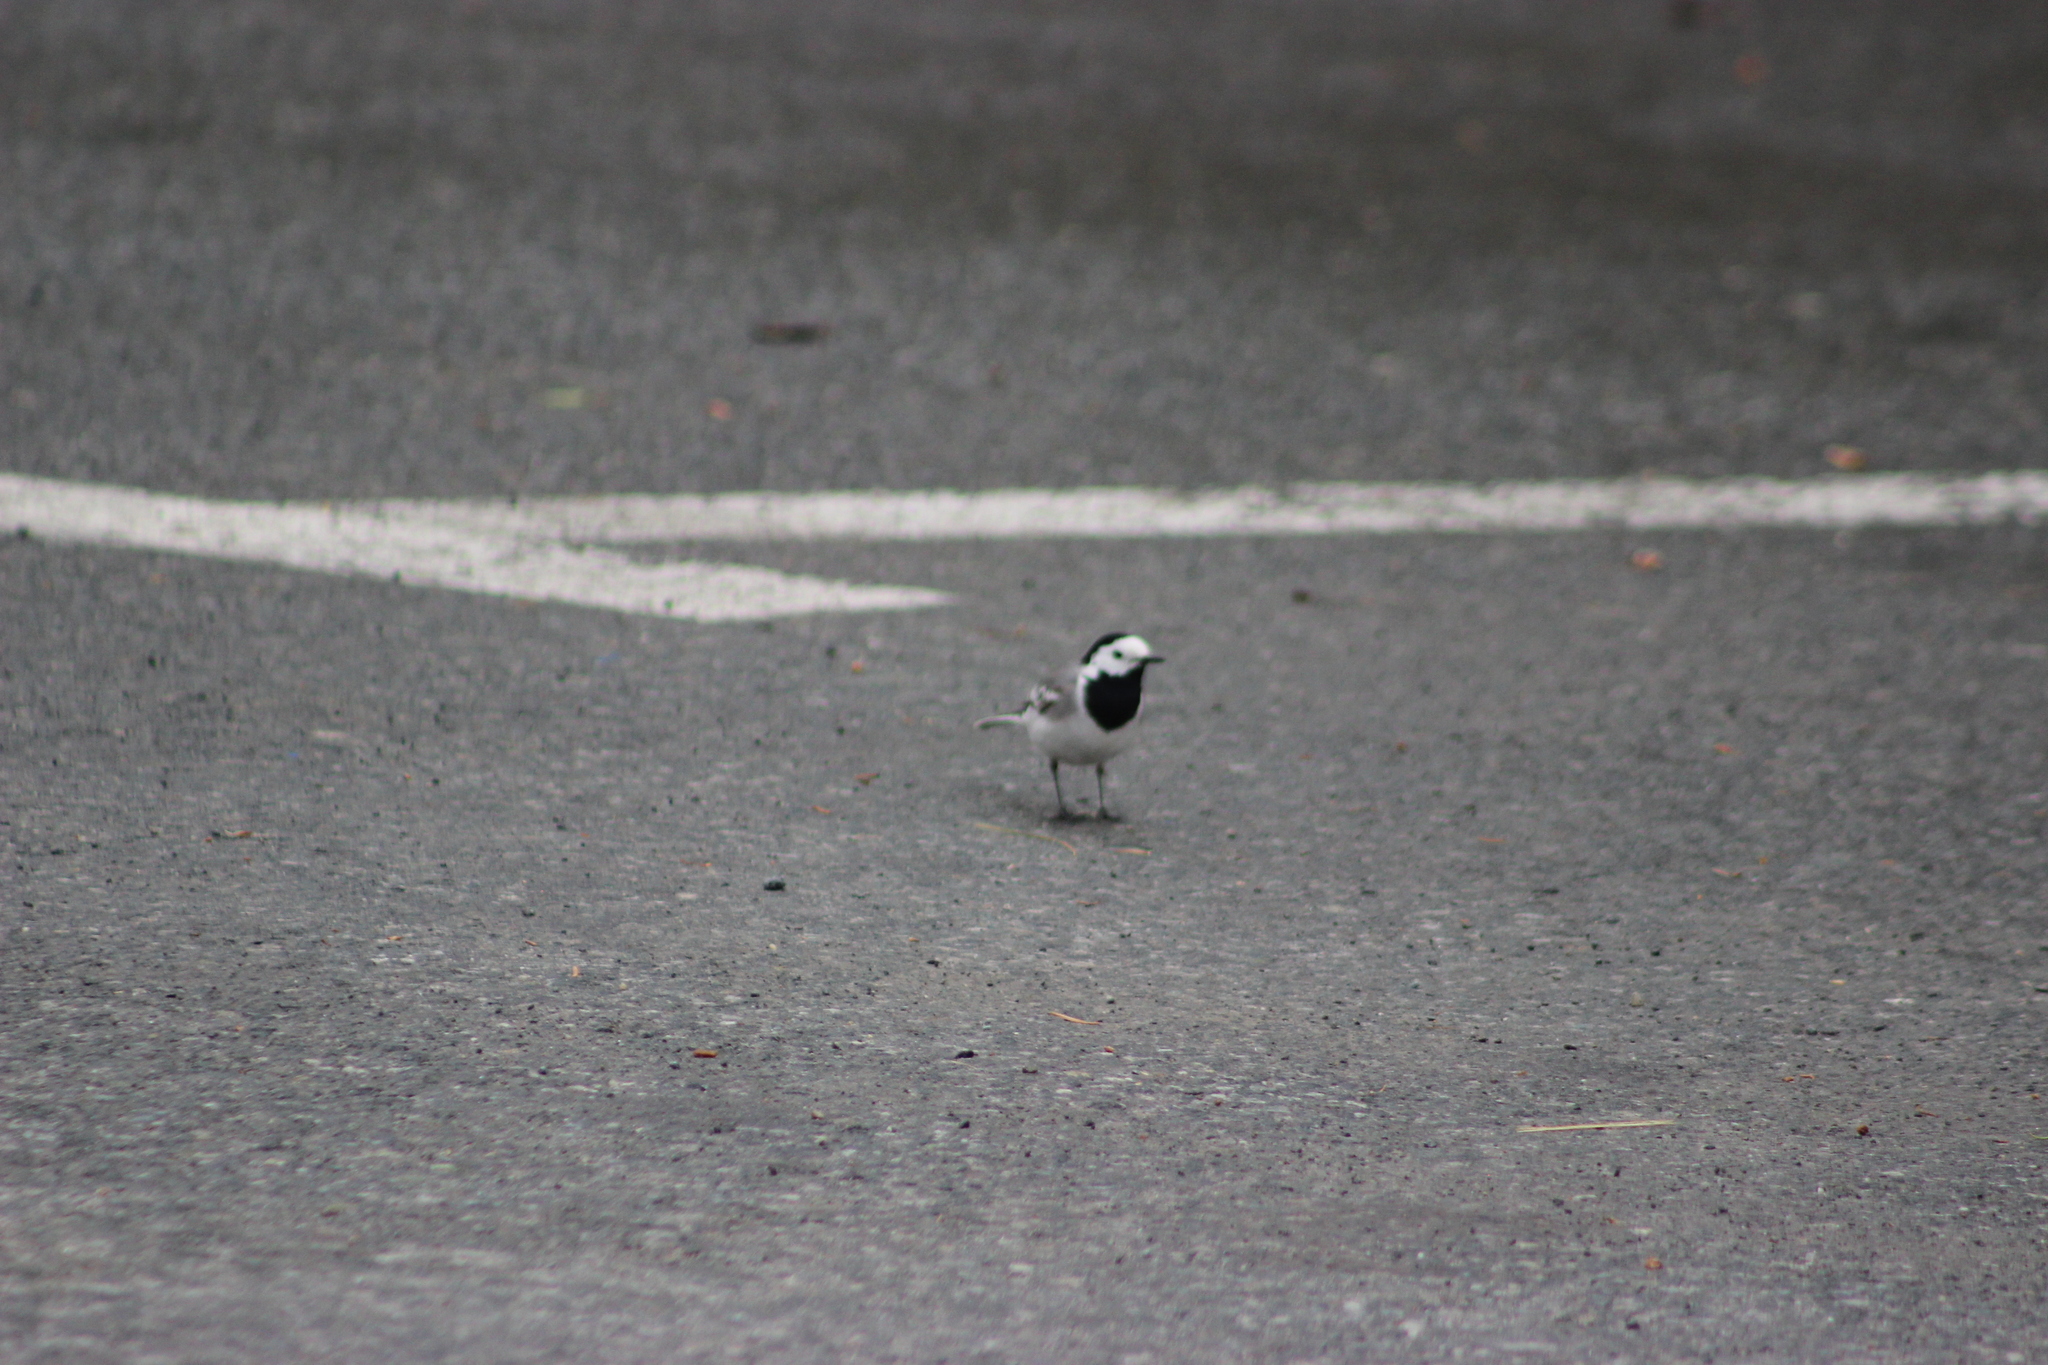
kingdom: Animalia
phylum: Chordata
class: Aves
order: Passeriformes
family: Motacillidae
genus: Motacilla
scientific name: Motacilla alba
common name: White wagtail
